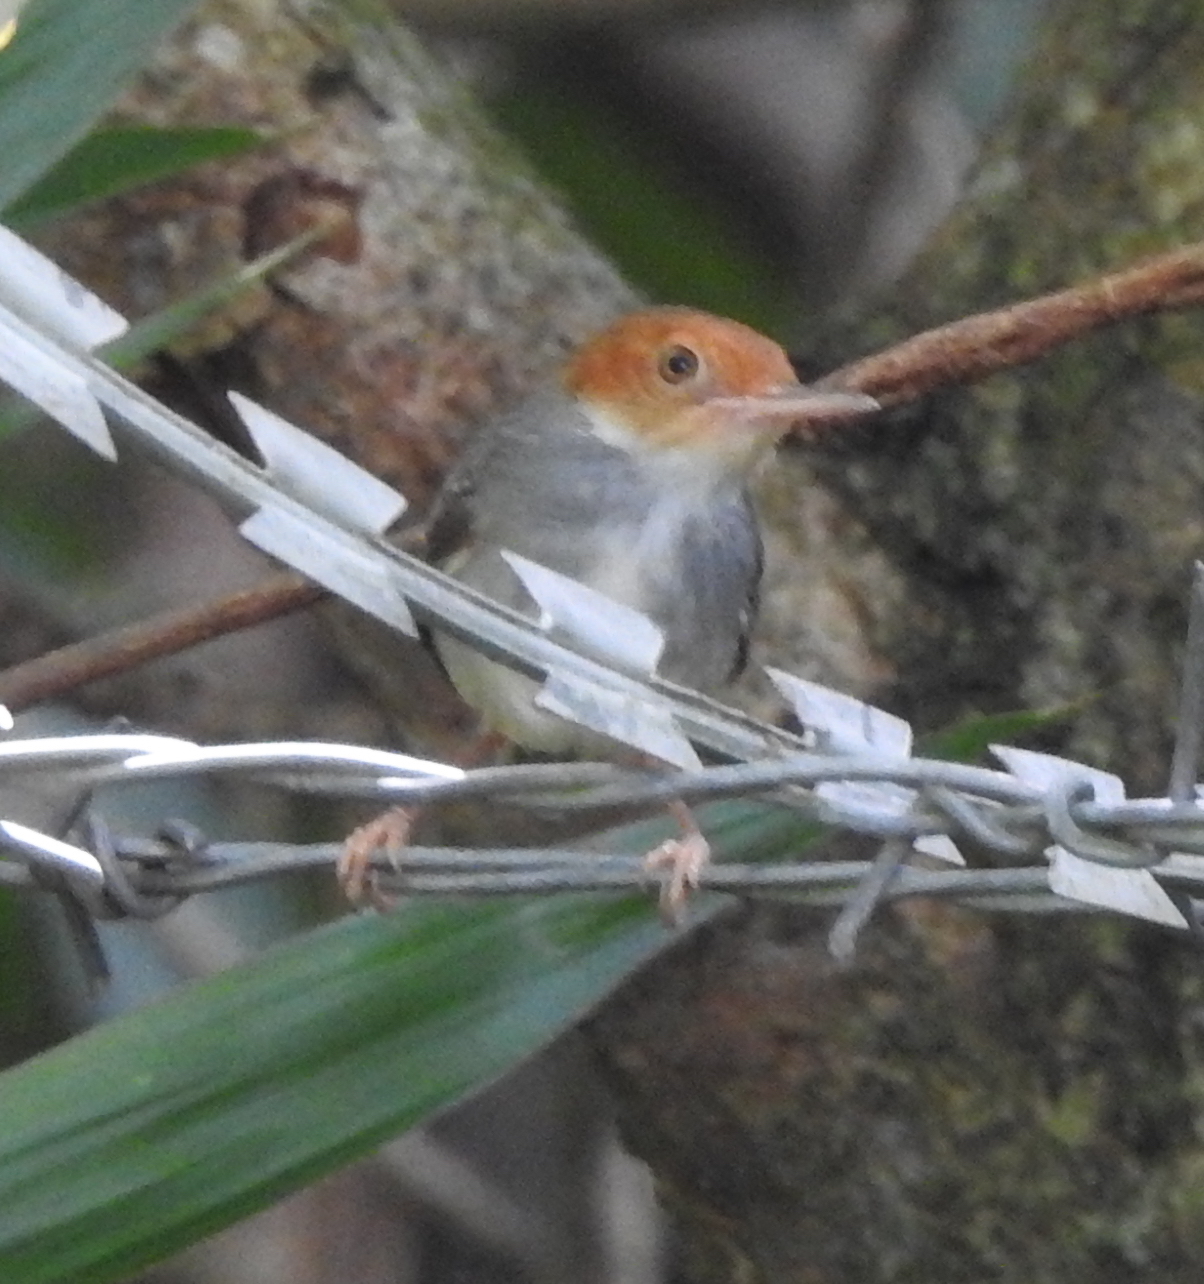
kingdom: Animalia
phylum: Chordata
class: Aves
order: Passeriformes
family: Cisticolidae
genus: Orthotomus
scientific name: Orthotomus ruficeps
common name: Ashy tailorbird
